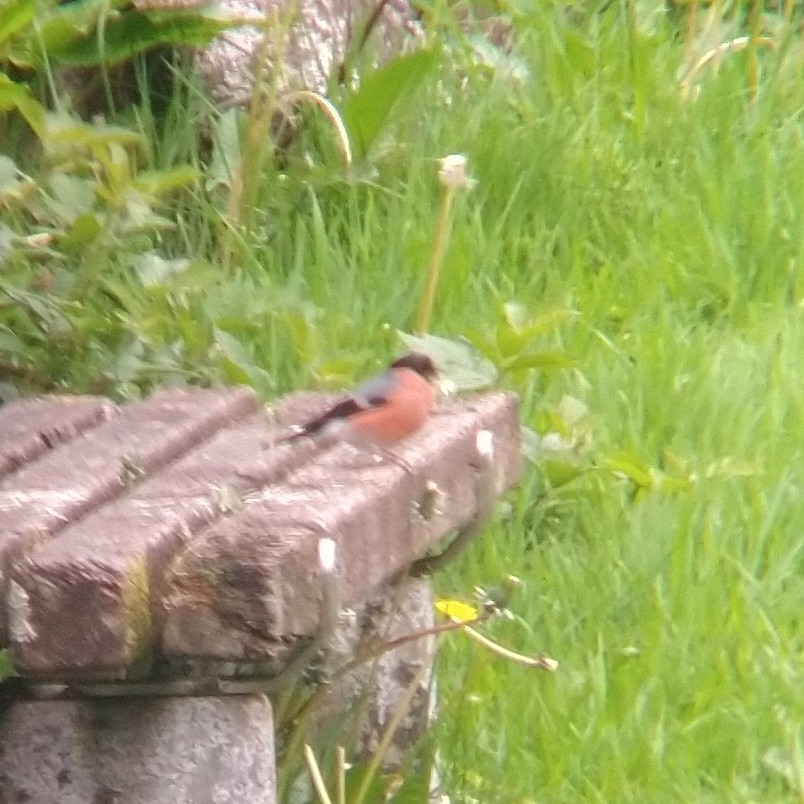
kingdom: Animalia
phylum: Chordata
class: Aves
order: Passeriformes
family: Fringillidae
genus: Pyrrhula
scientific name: Pyrrhula pyrrhula
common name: Eurasian bullfinch
